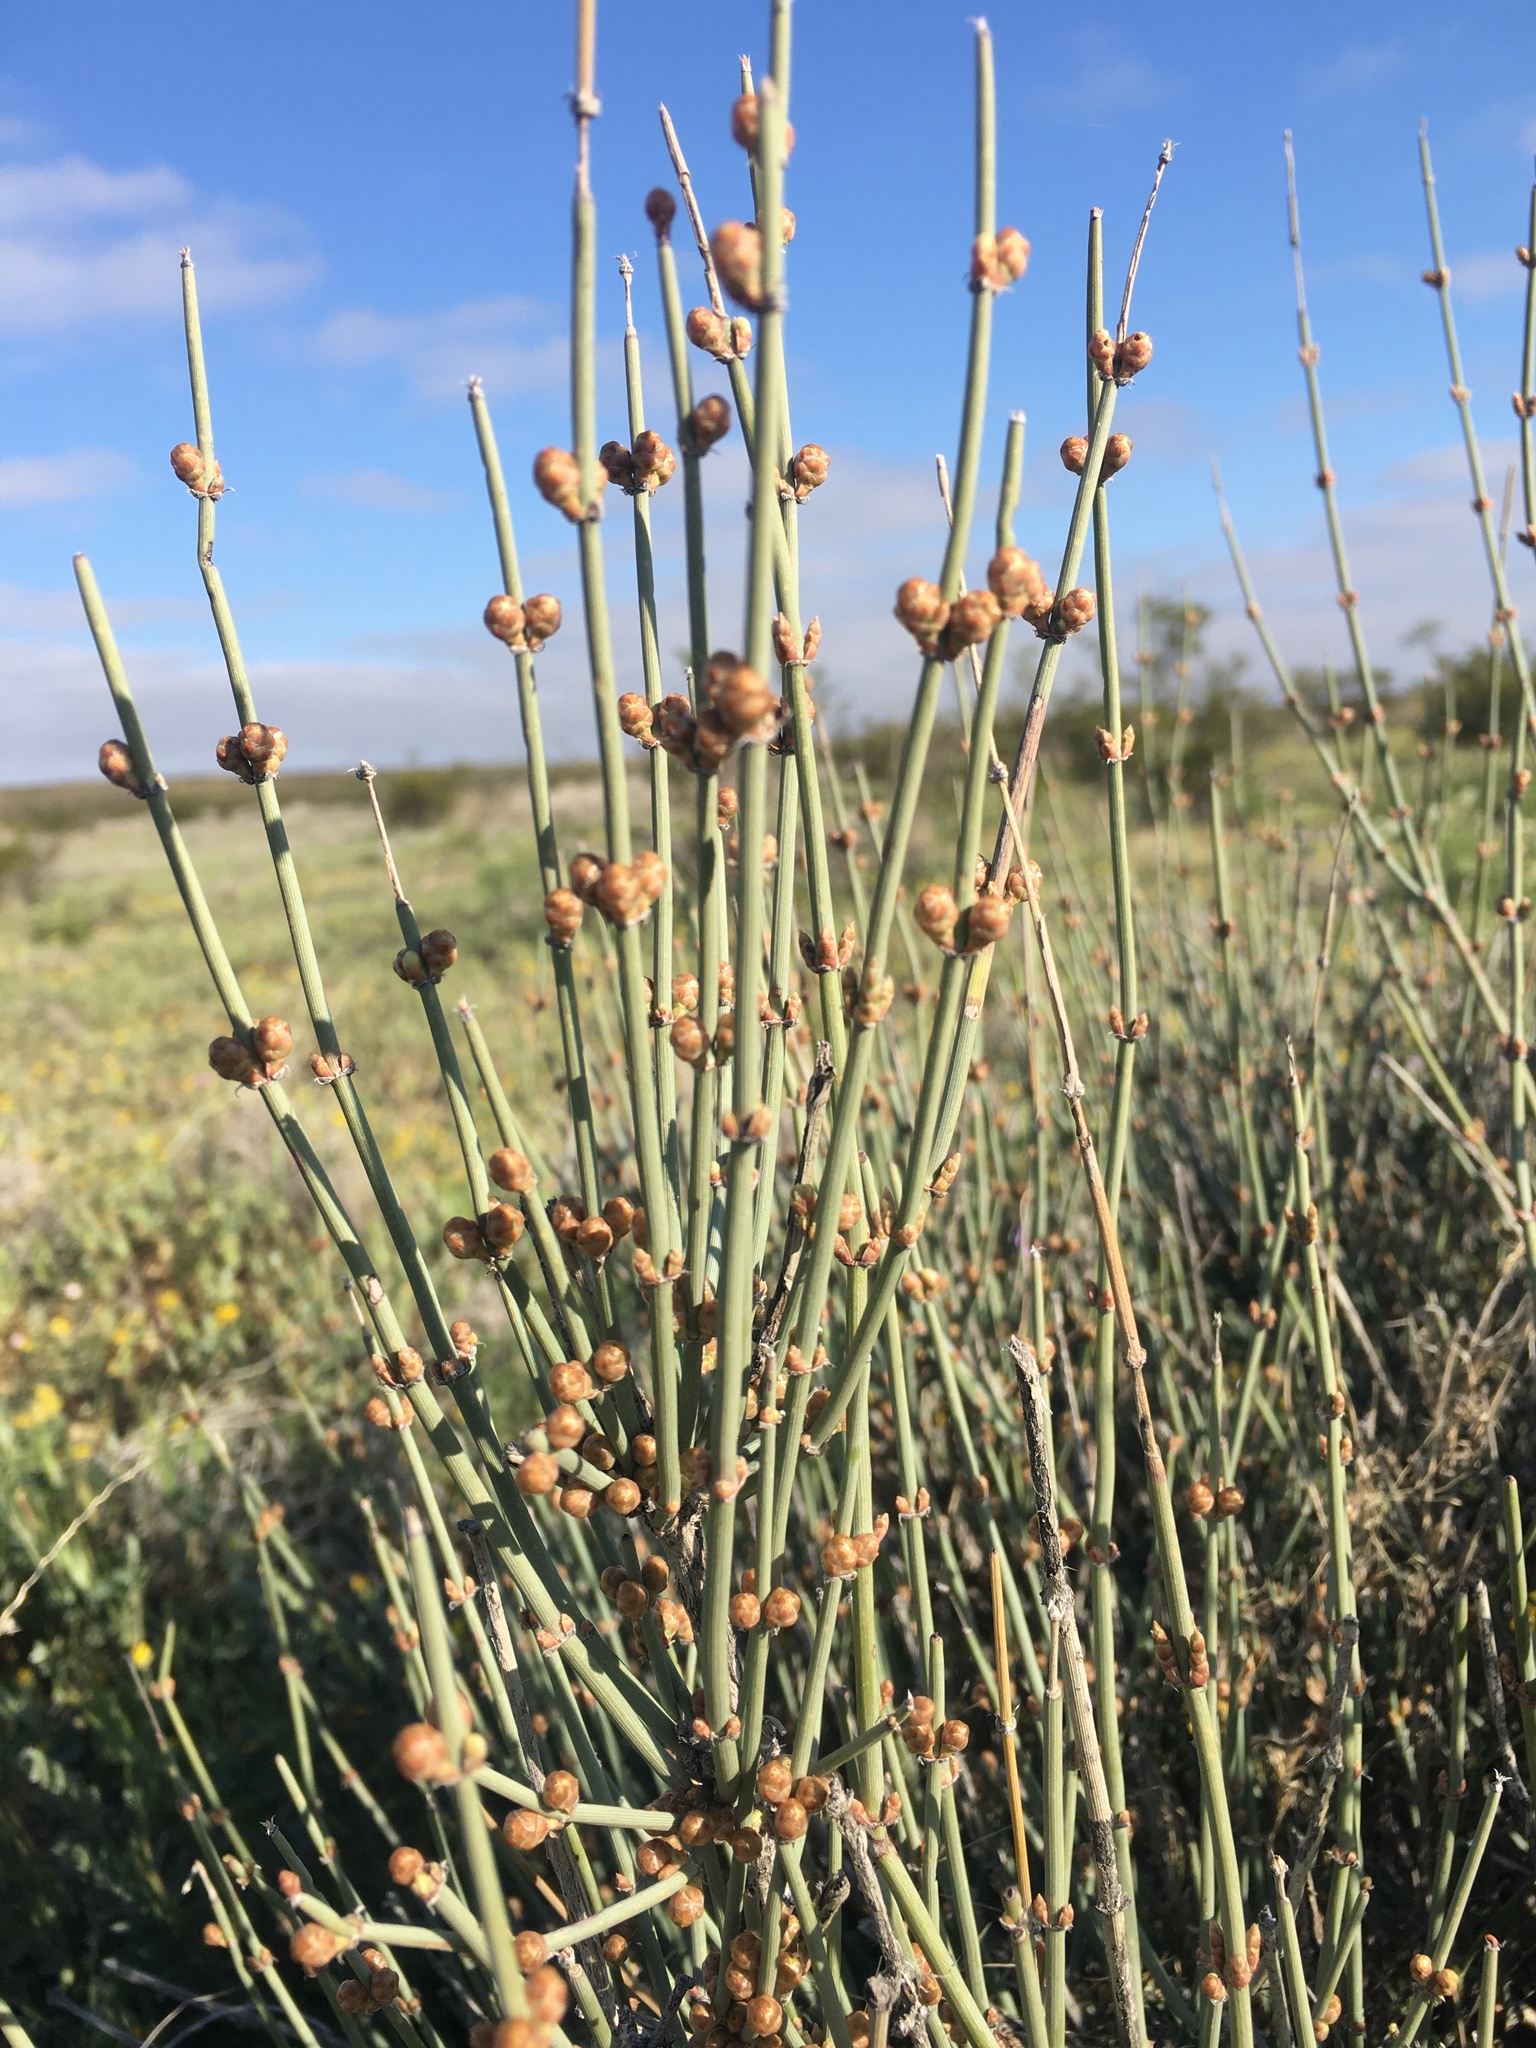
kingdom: Plantae
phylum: Tracheophyta
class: Gnetopsida
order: Ephedrales
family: Ephedraceae
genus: Ephedra
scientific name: Ephedra torreyana
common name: Torrey ephedra
